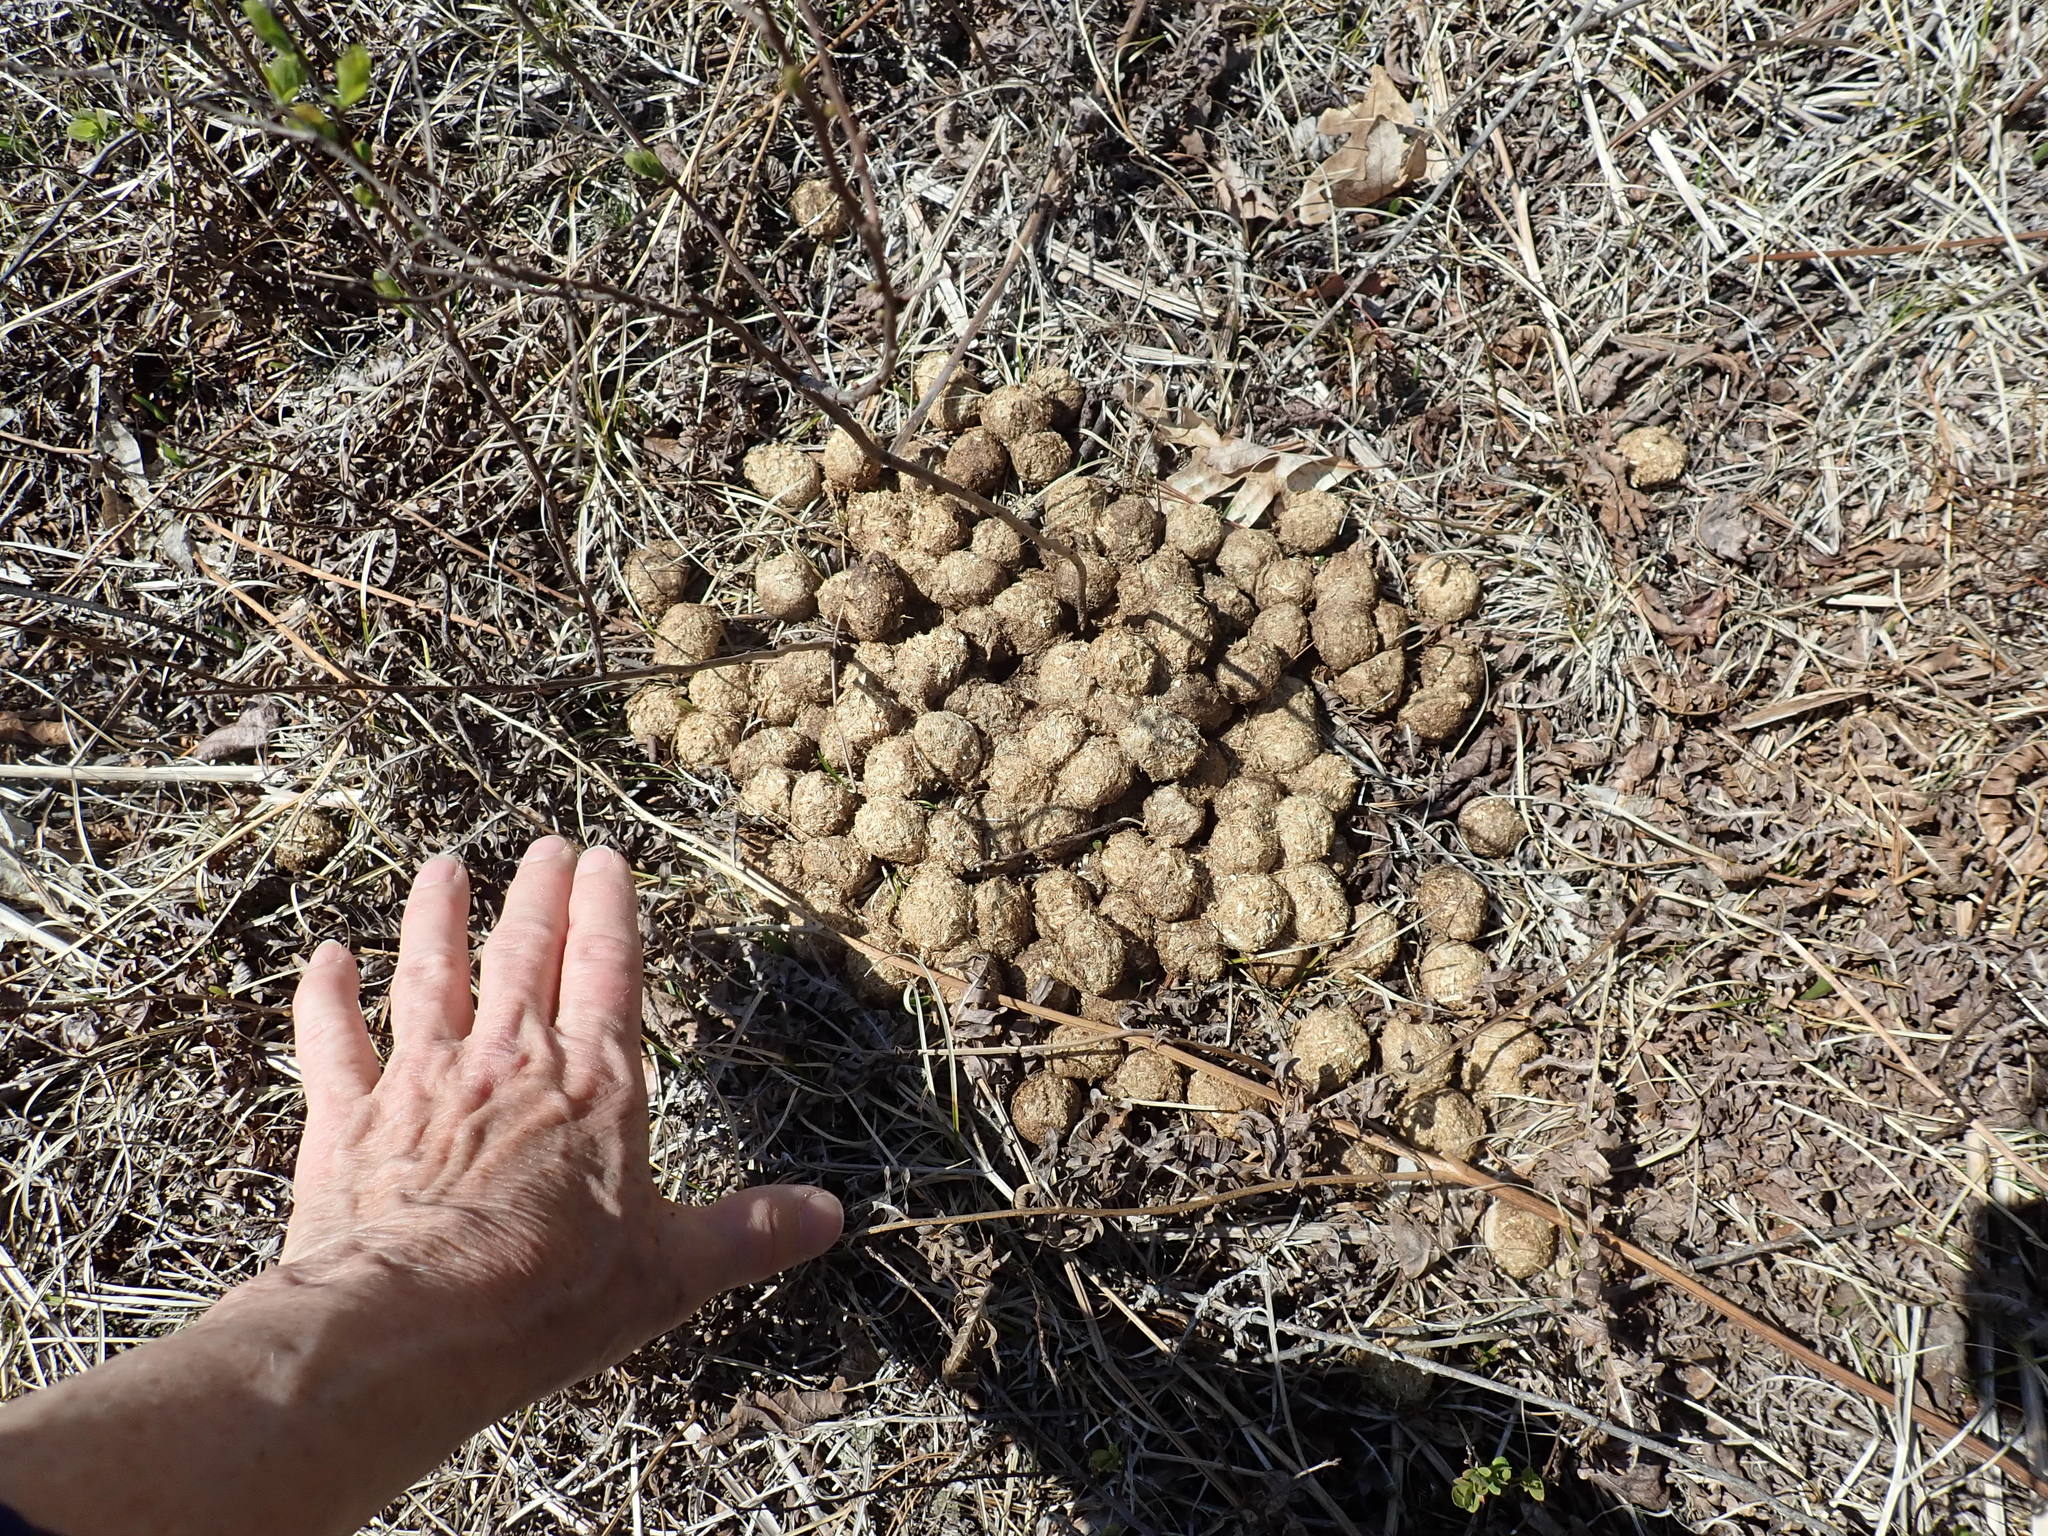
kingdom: Animalia
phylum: Chordata
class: Mammalia
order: Artiodactyla
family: Cervidae
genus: Alces
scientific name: Alces alces
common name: Moose
